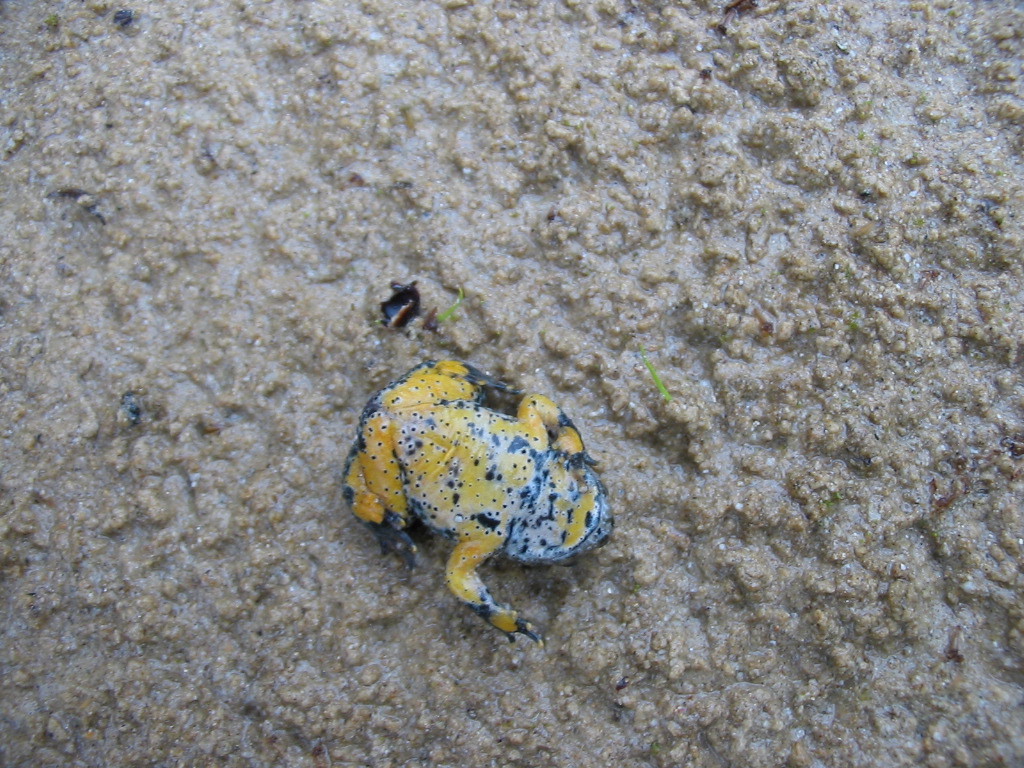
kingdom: Animalia
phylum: Chordata
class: Amphibia
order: Anura
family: Bombinatoridae
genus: Bombina
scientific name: Bombina variegata
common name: Yellow-bellied toad
